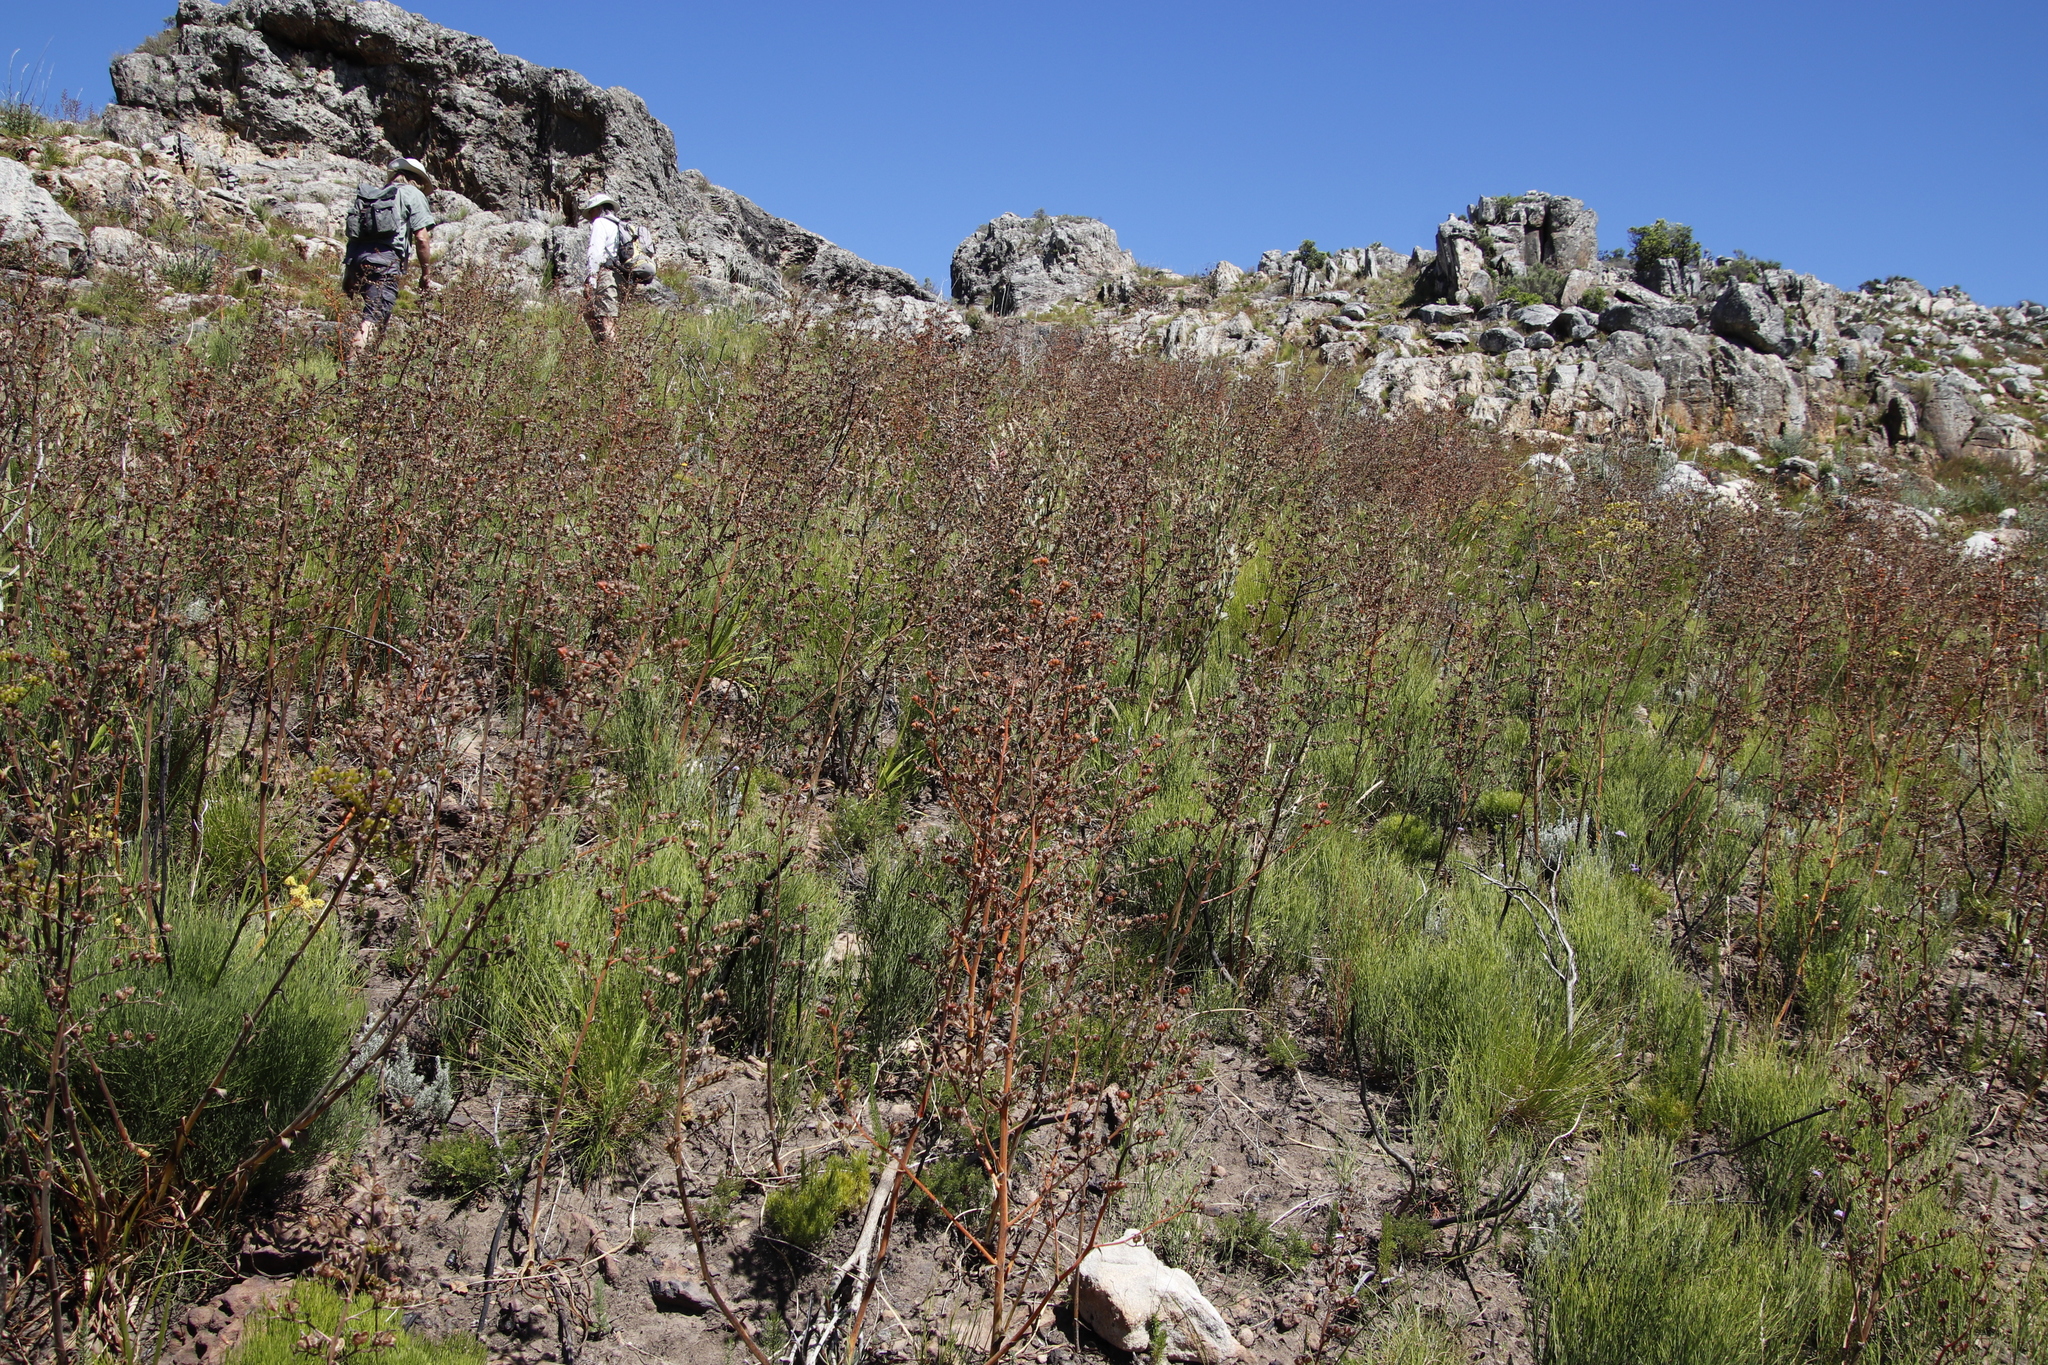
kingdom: Plantae
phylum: Tracheophyta
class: Liliopsida
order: Commelinales
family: Haemodoraceae
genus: Wachendorfia
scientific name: Wachendorfia paniculata
